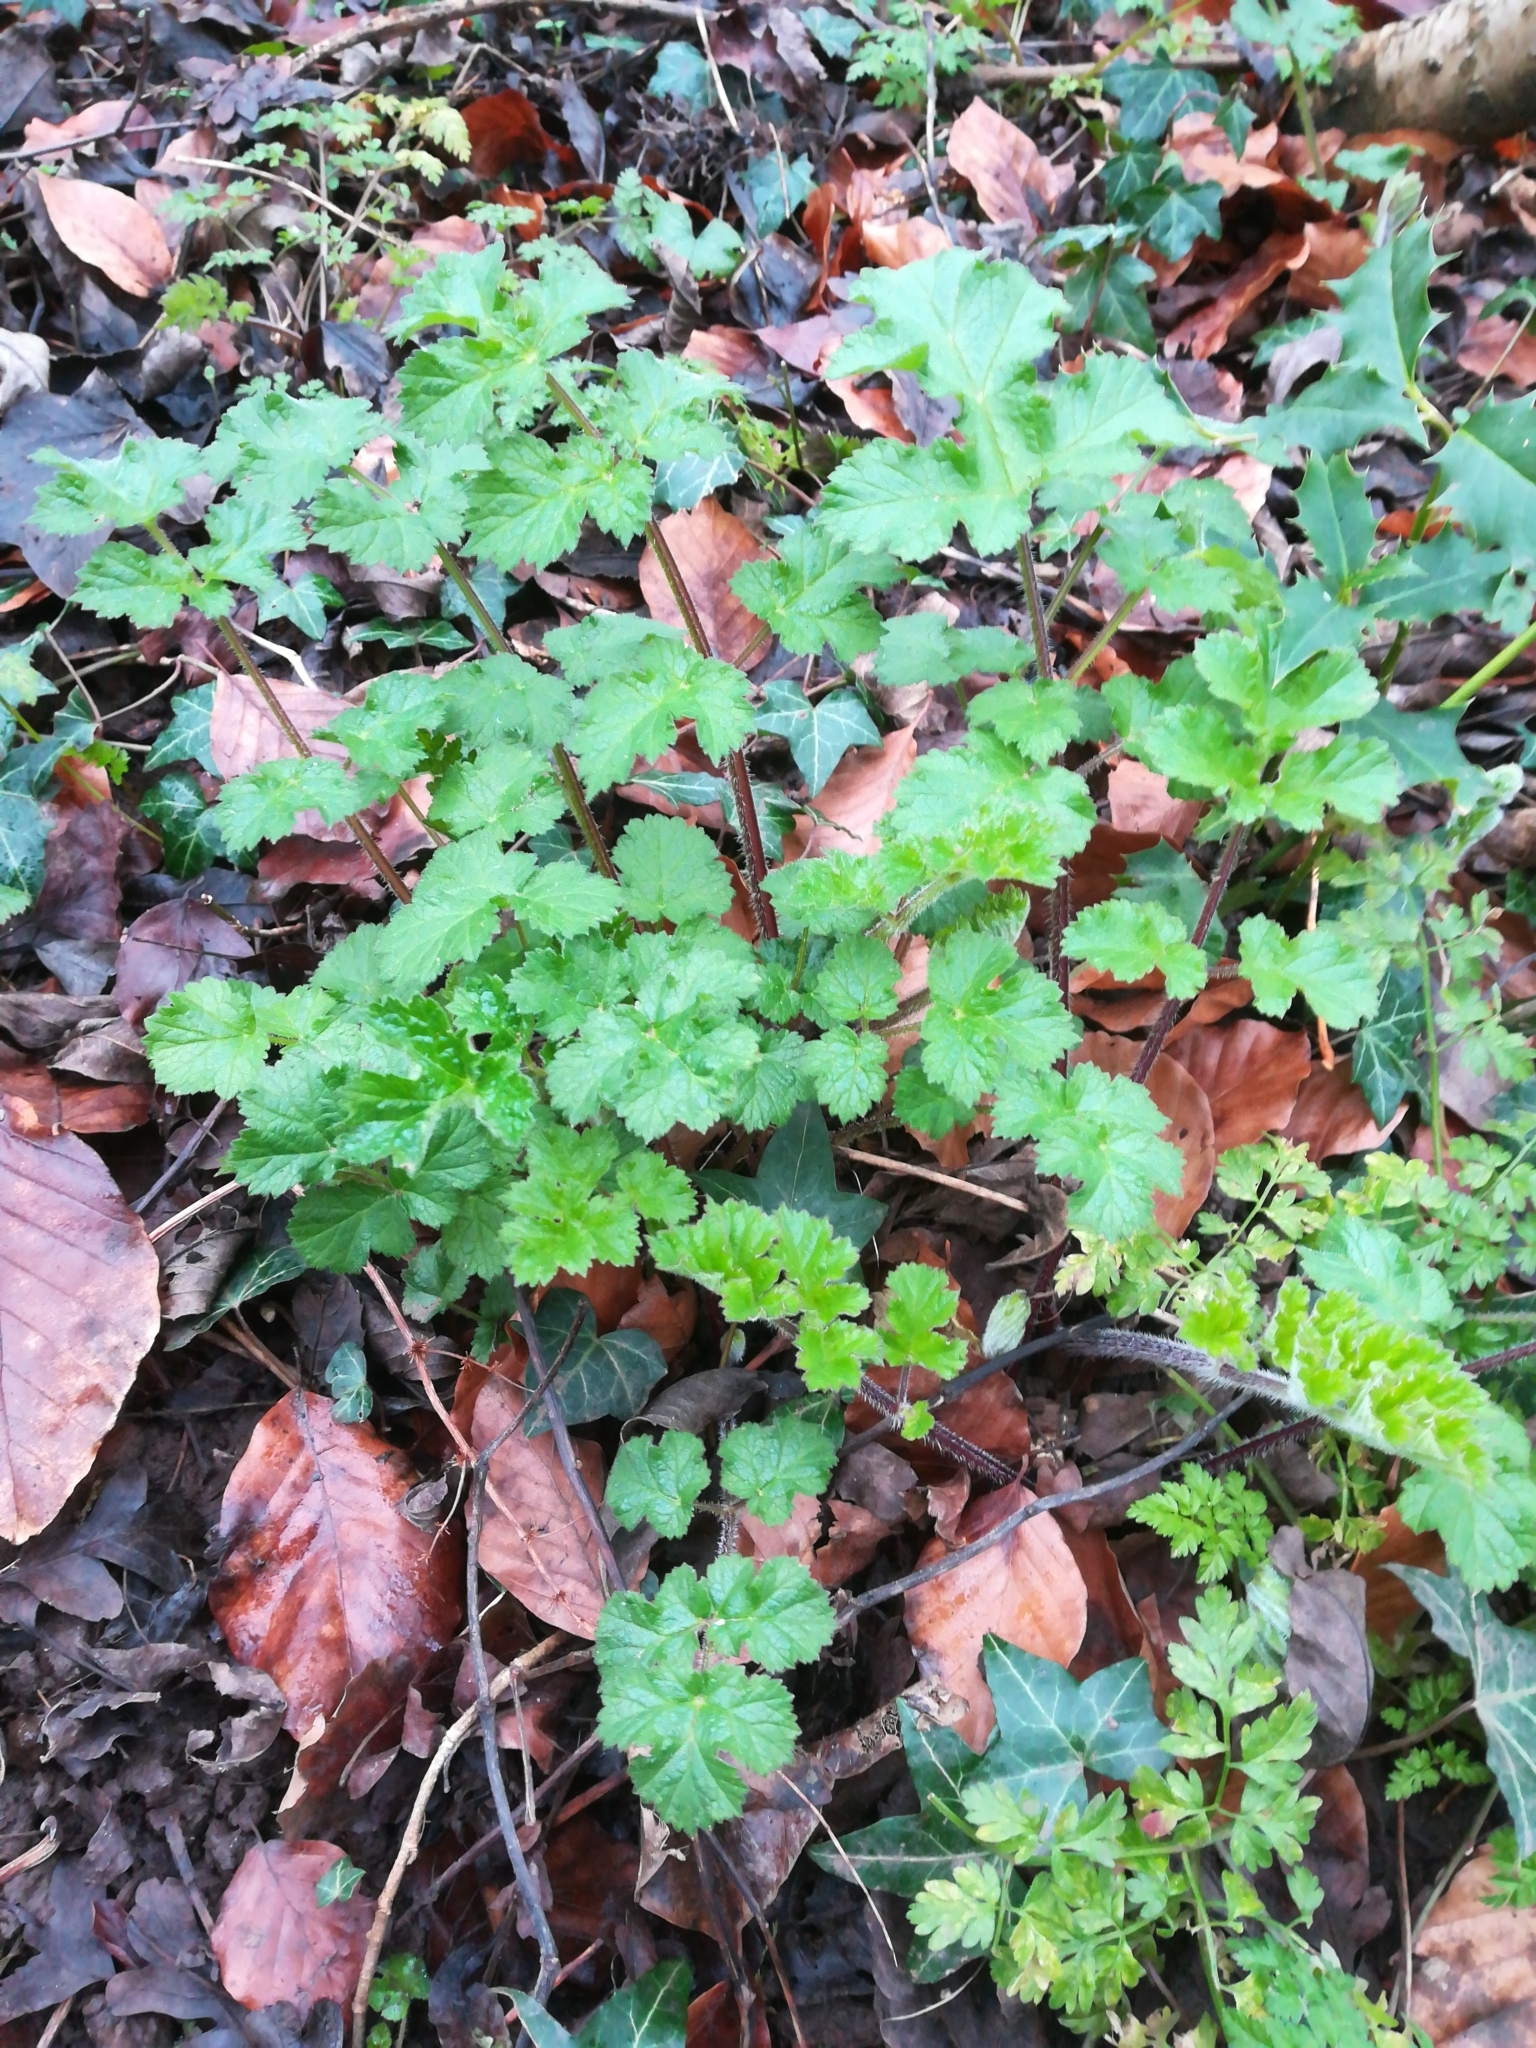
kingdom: Plantae
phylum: Tracheophyta
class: Magnoliopsida
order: Apiales
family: Apiaceae
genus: Heracleum
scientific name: Heracleum sphondylium
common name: Hogweed
